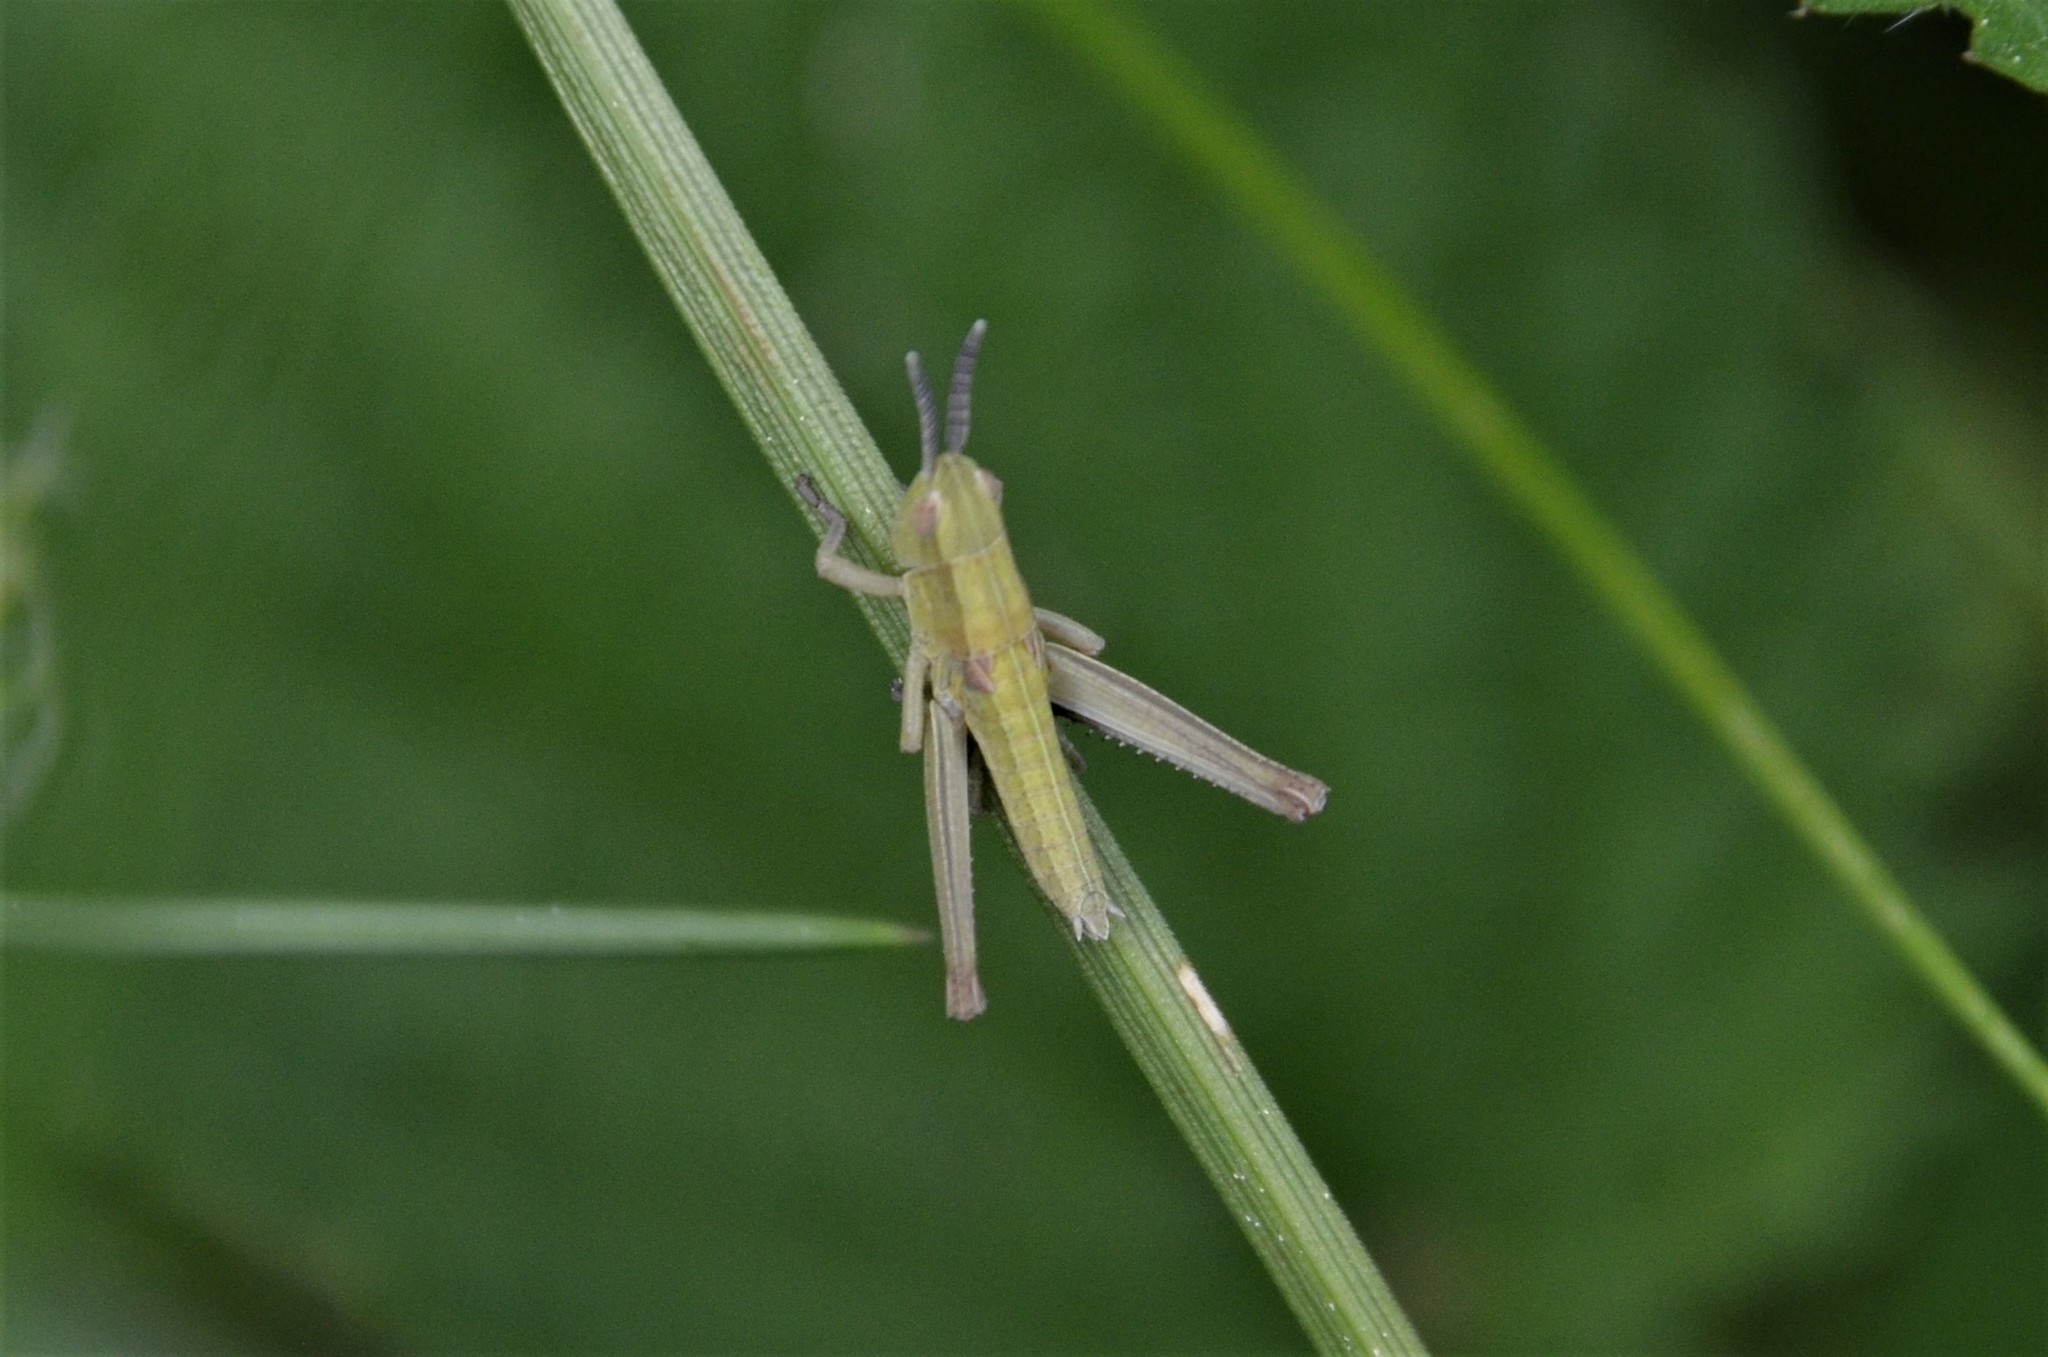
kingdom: Animalia
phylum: Arthropoda
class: Insecta
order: Orthoptera
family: Acrididae
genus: Euthystira
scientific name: Euthystira brachyptera
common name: Small gold grasshopper
